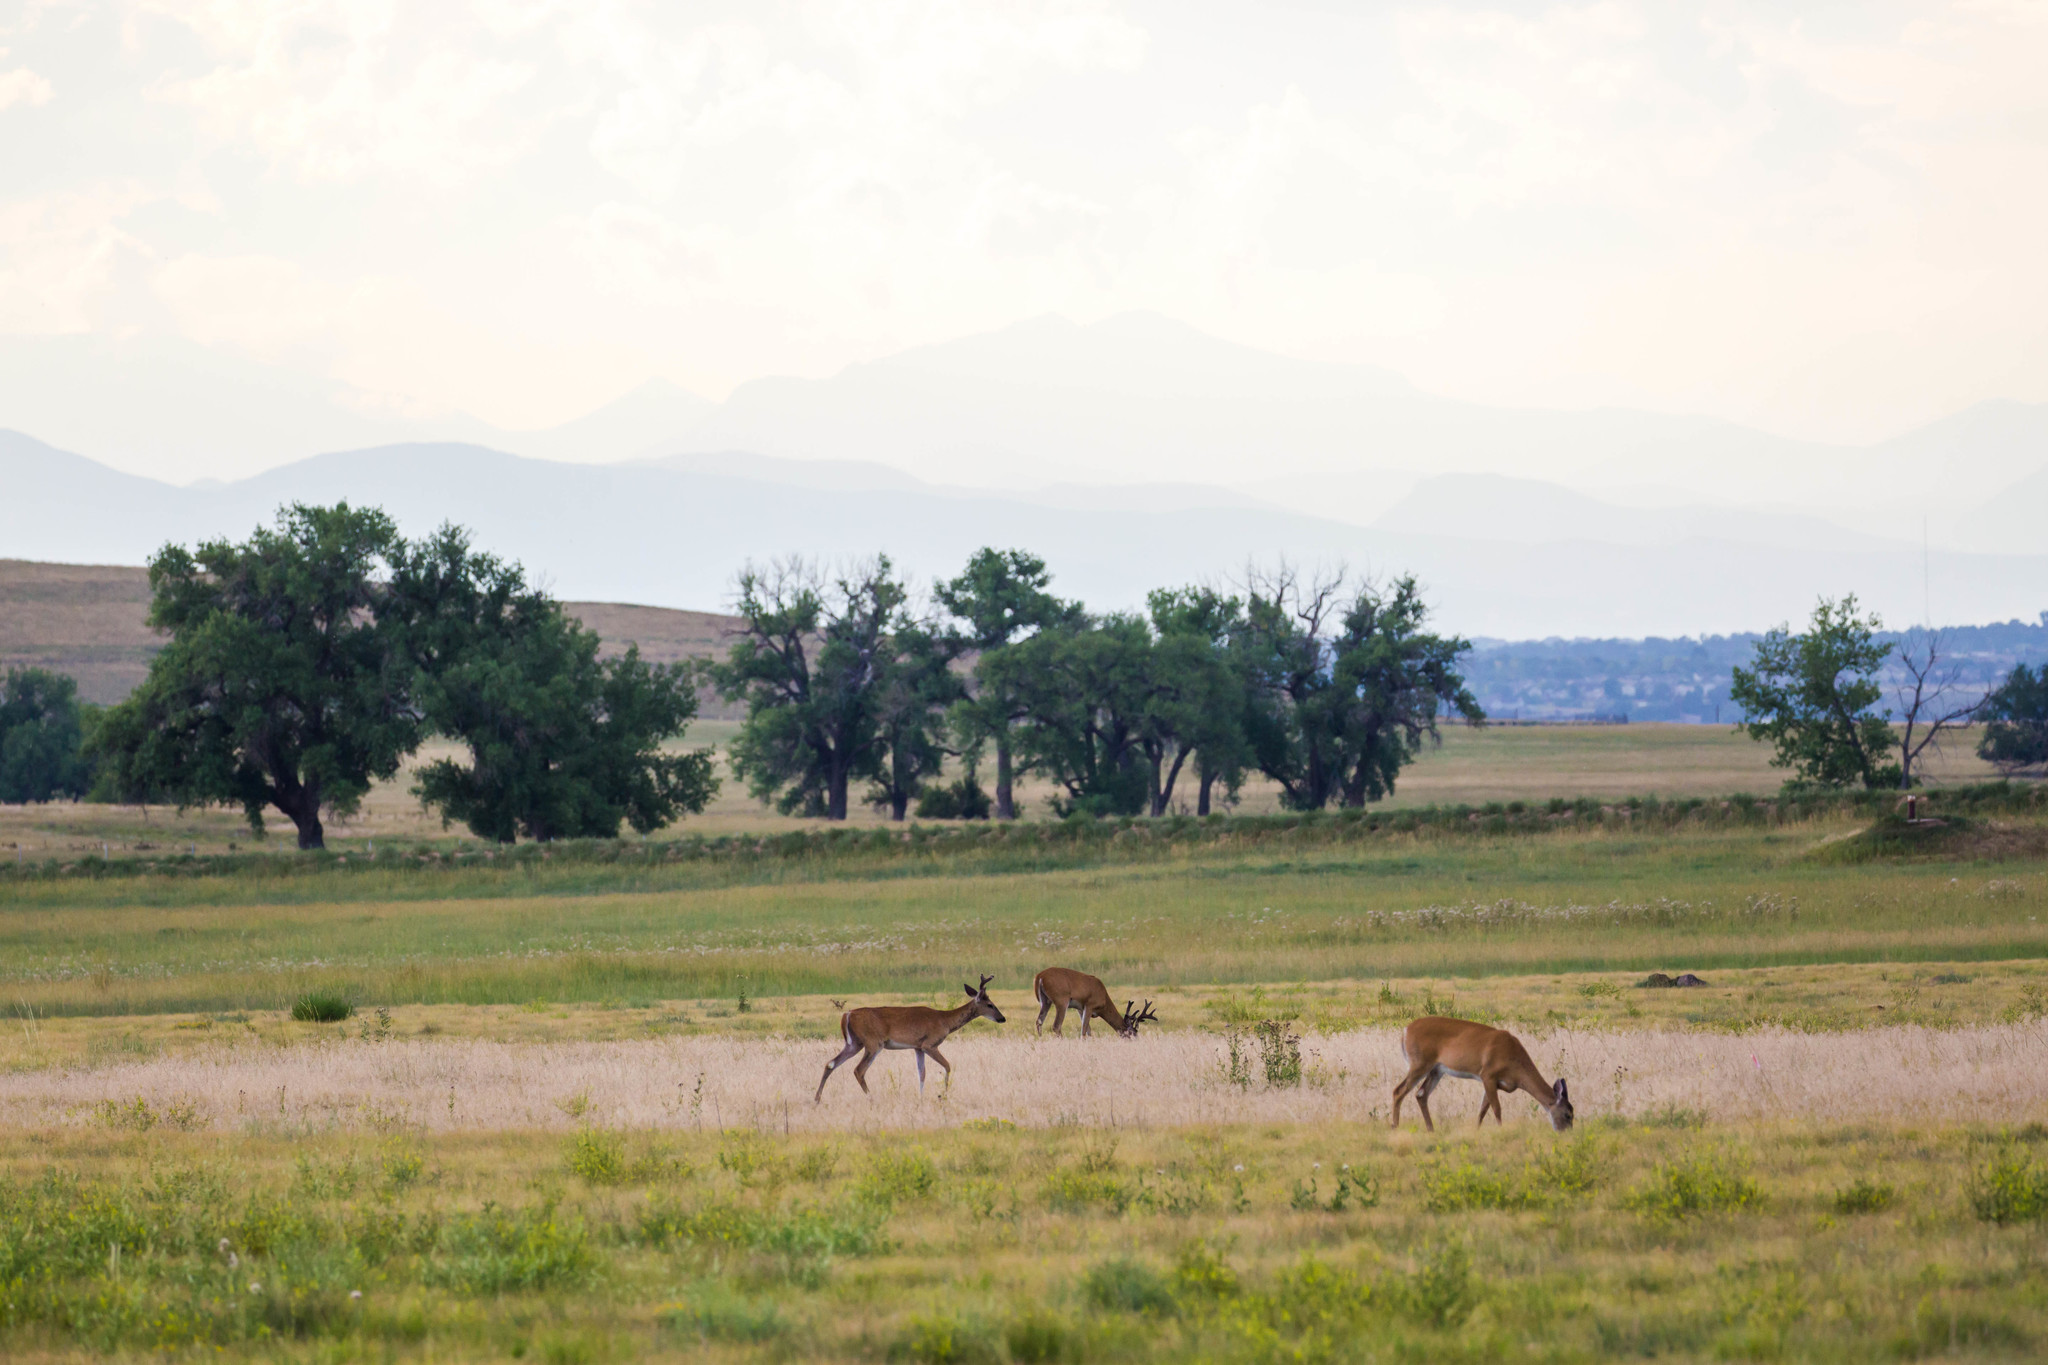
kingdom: Animalia
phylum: Chordata
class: Mammalia
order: Artiodactyla
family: Cervidae
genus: Odocoileus
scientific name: Odocoileus virginianus
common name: White-tailed deer
